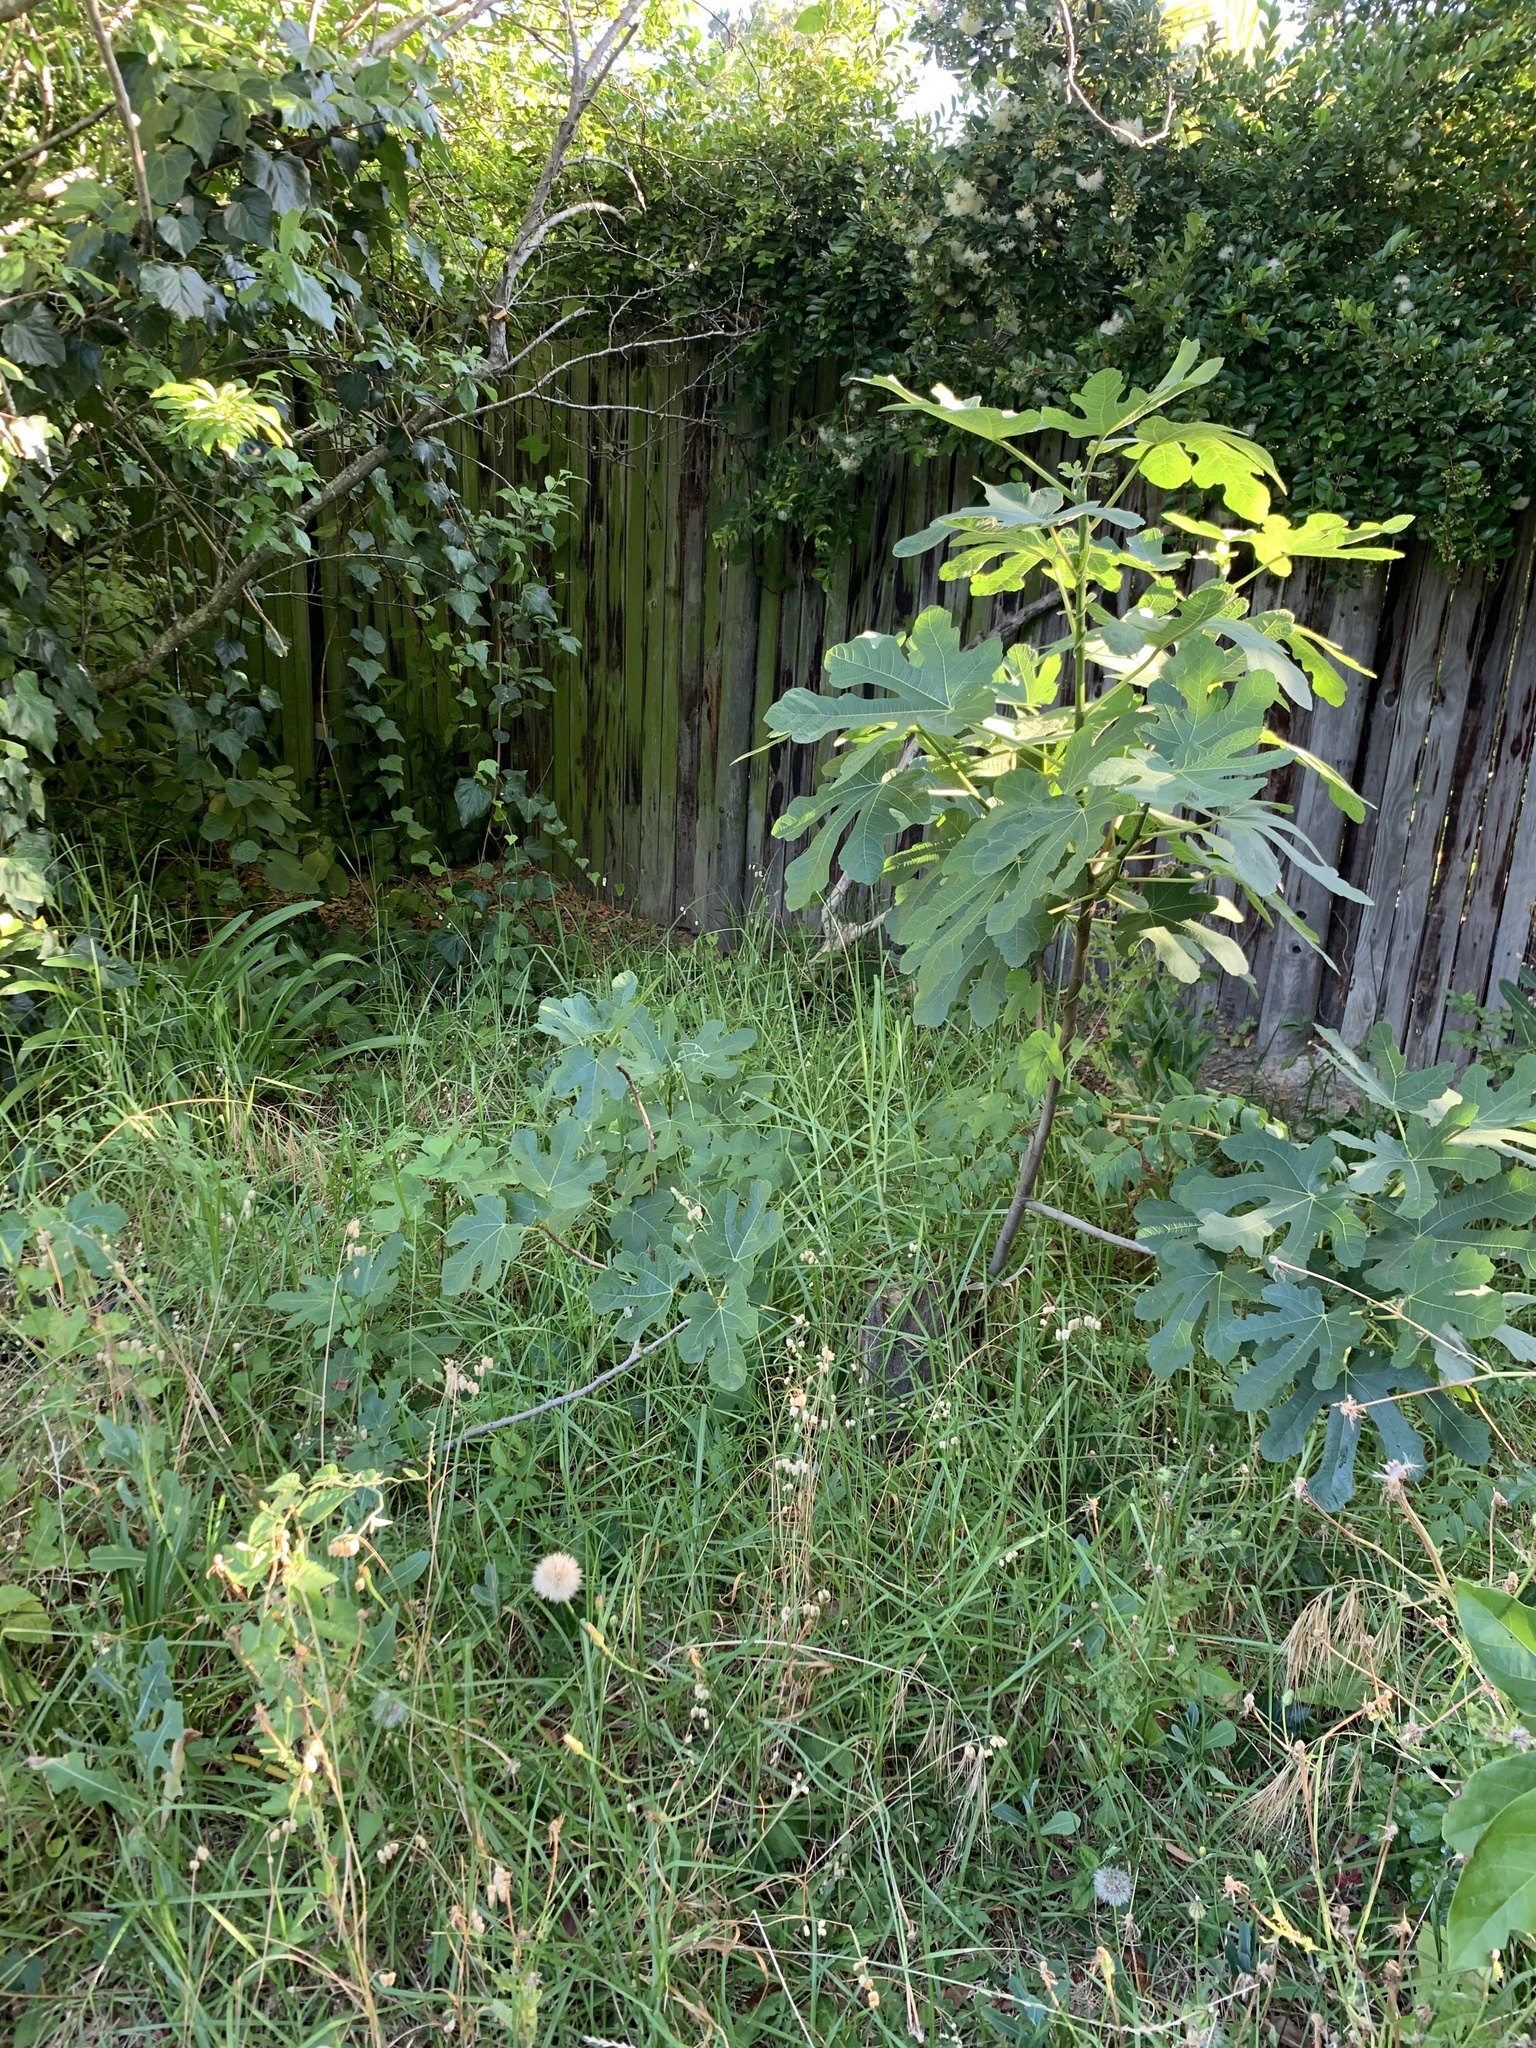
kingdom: Plantae
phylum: Tracheophyta
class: Magnoliopsida
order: Rosales
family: Moraceae
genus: Ficus
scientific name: Ficus carica
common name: Fig
